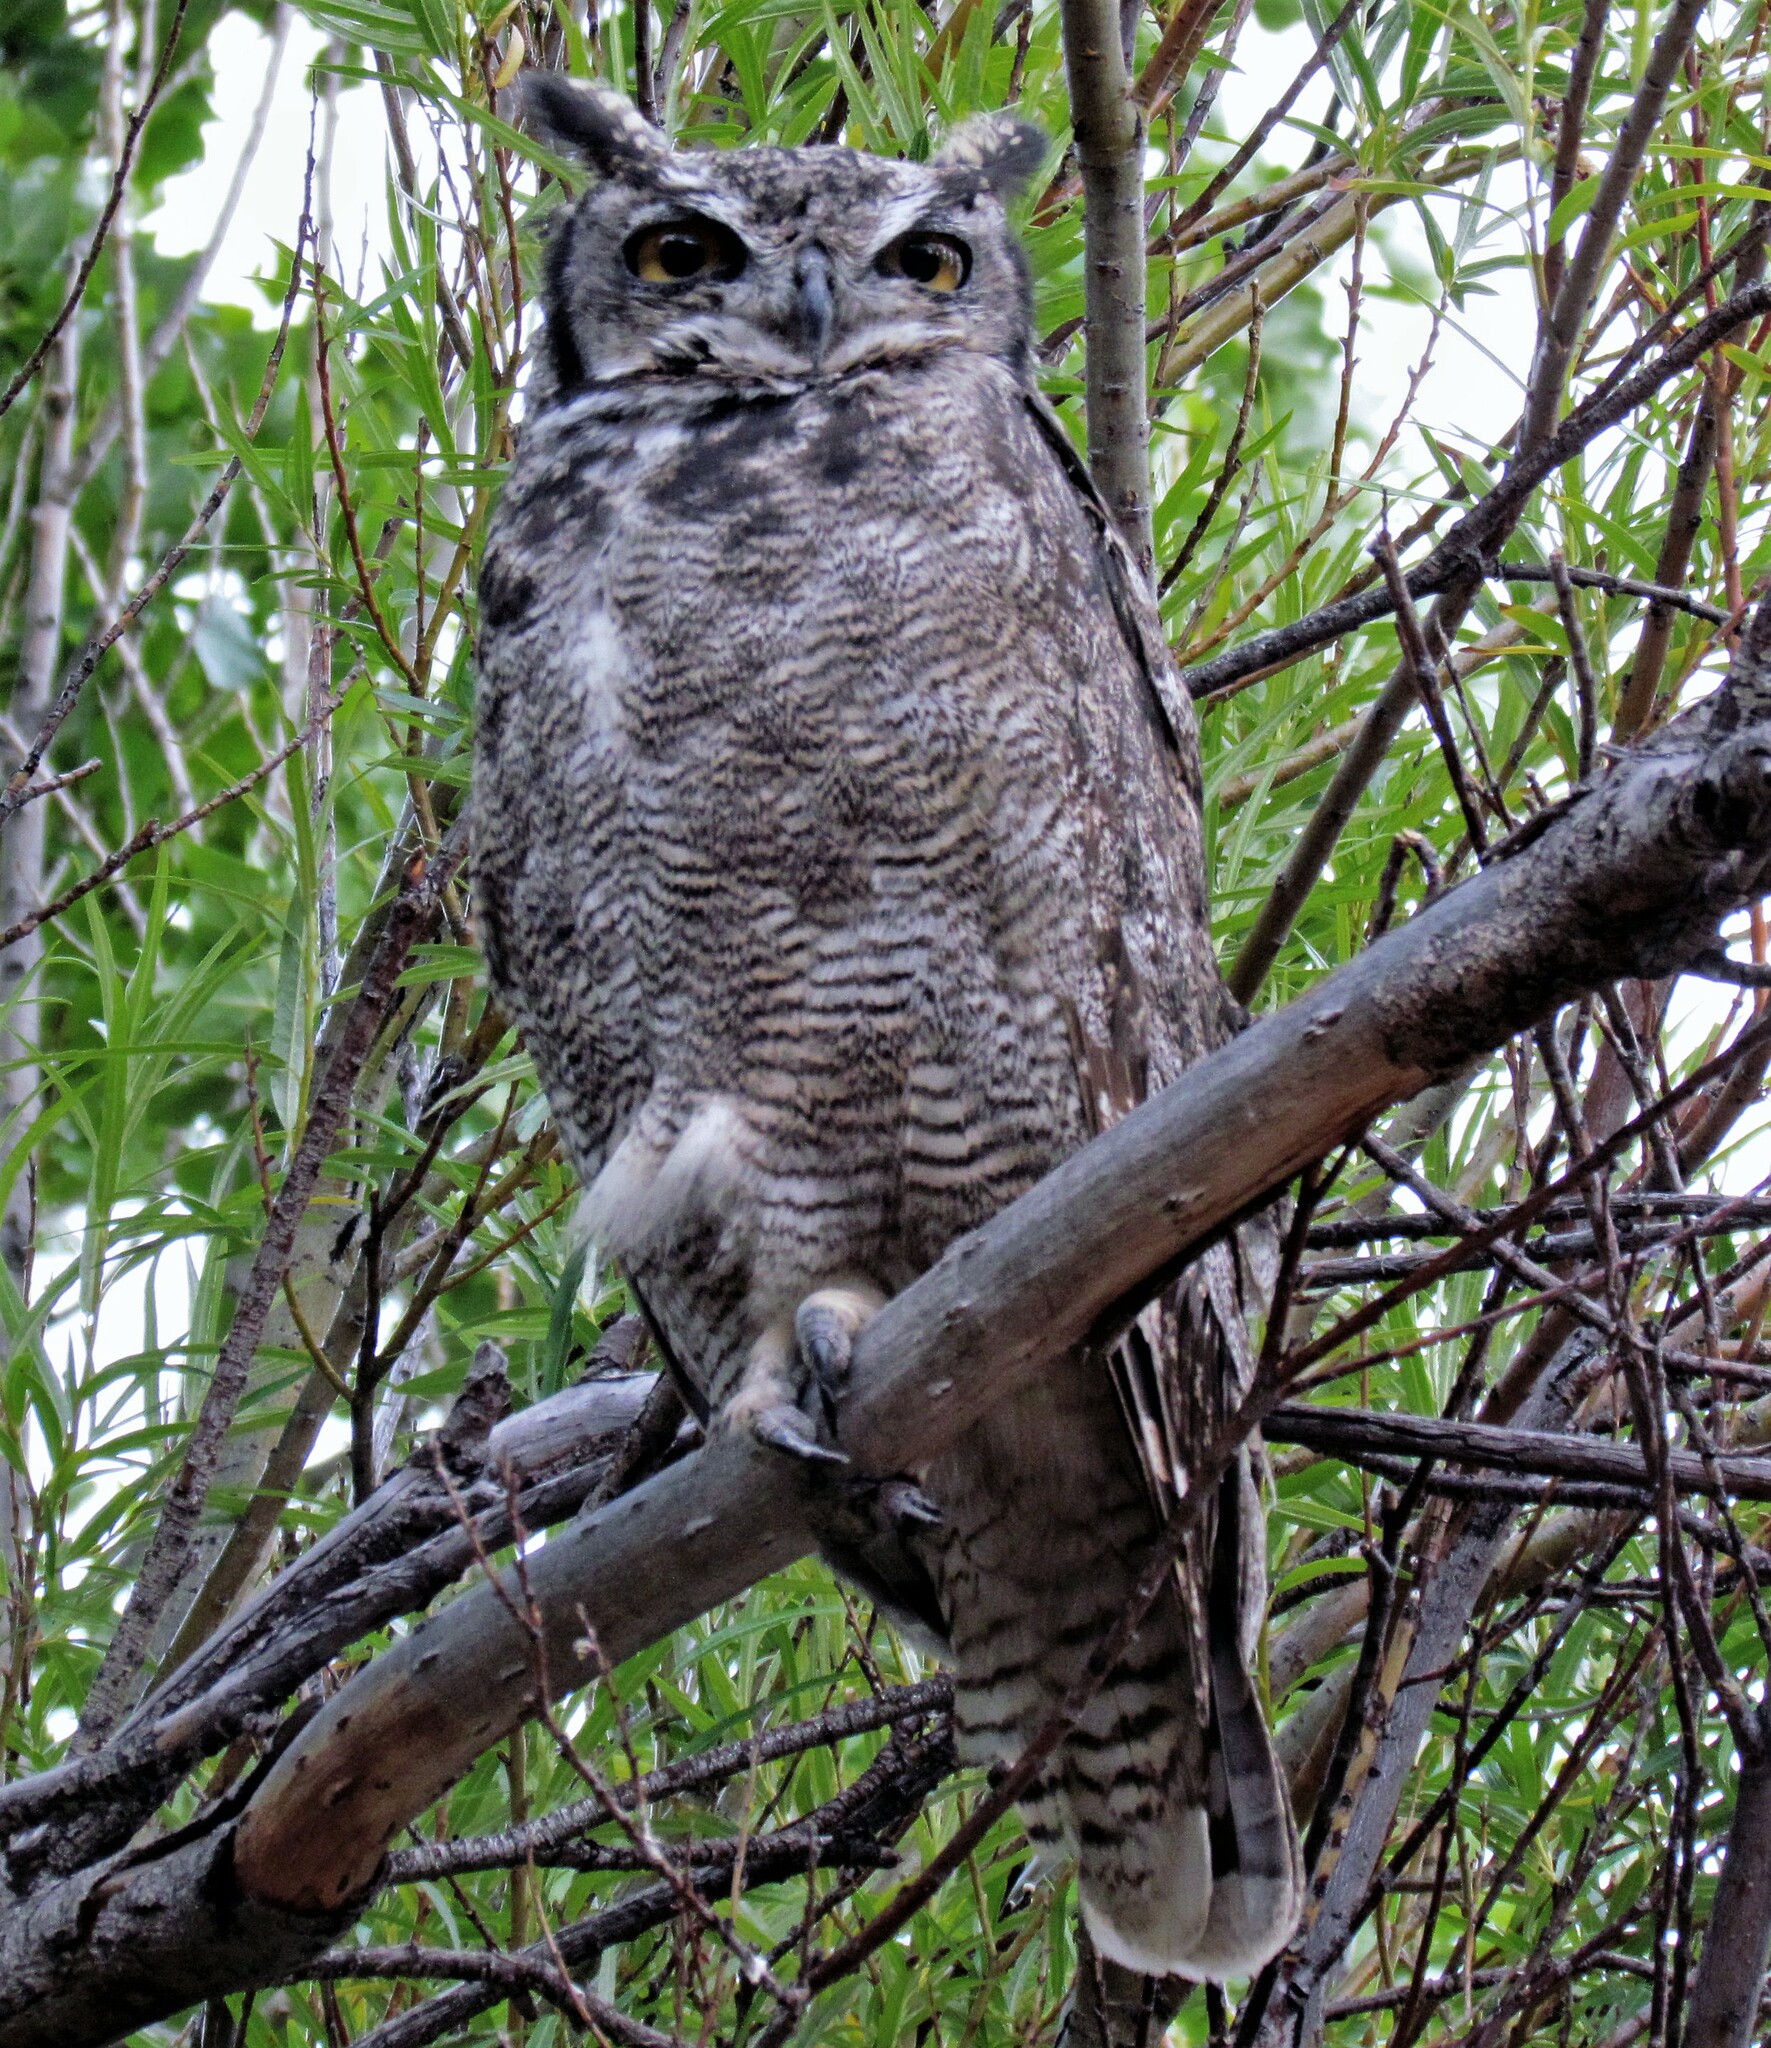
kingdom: Animalia
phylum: Chordata
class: Aves
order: Strigiformes
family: Strigidae
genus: Bubo
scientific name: Bubo magellanicus
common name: Lesser horned owl
